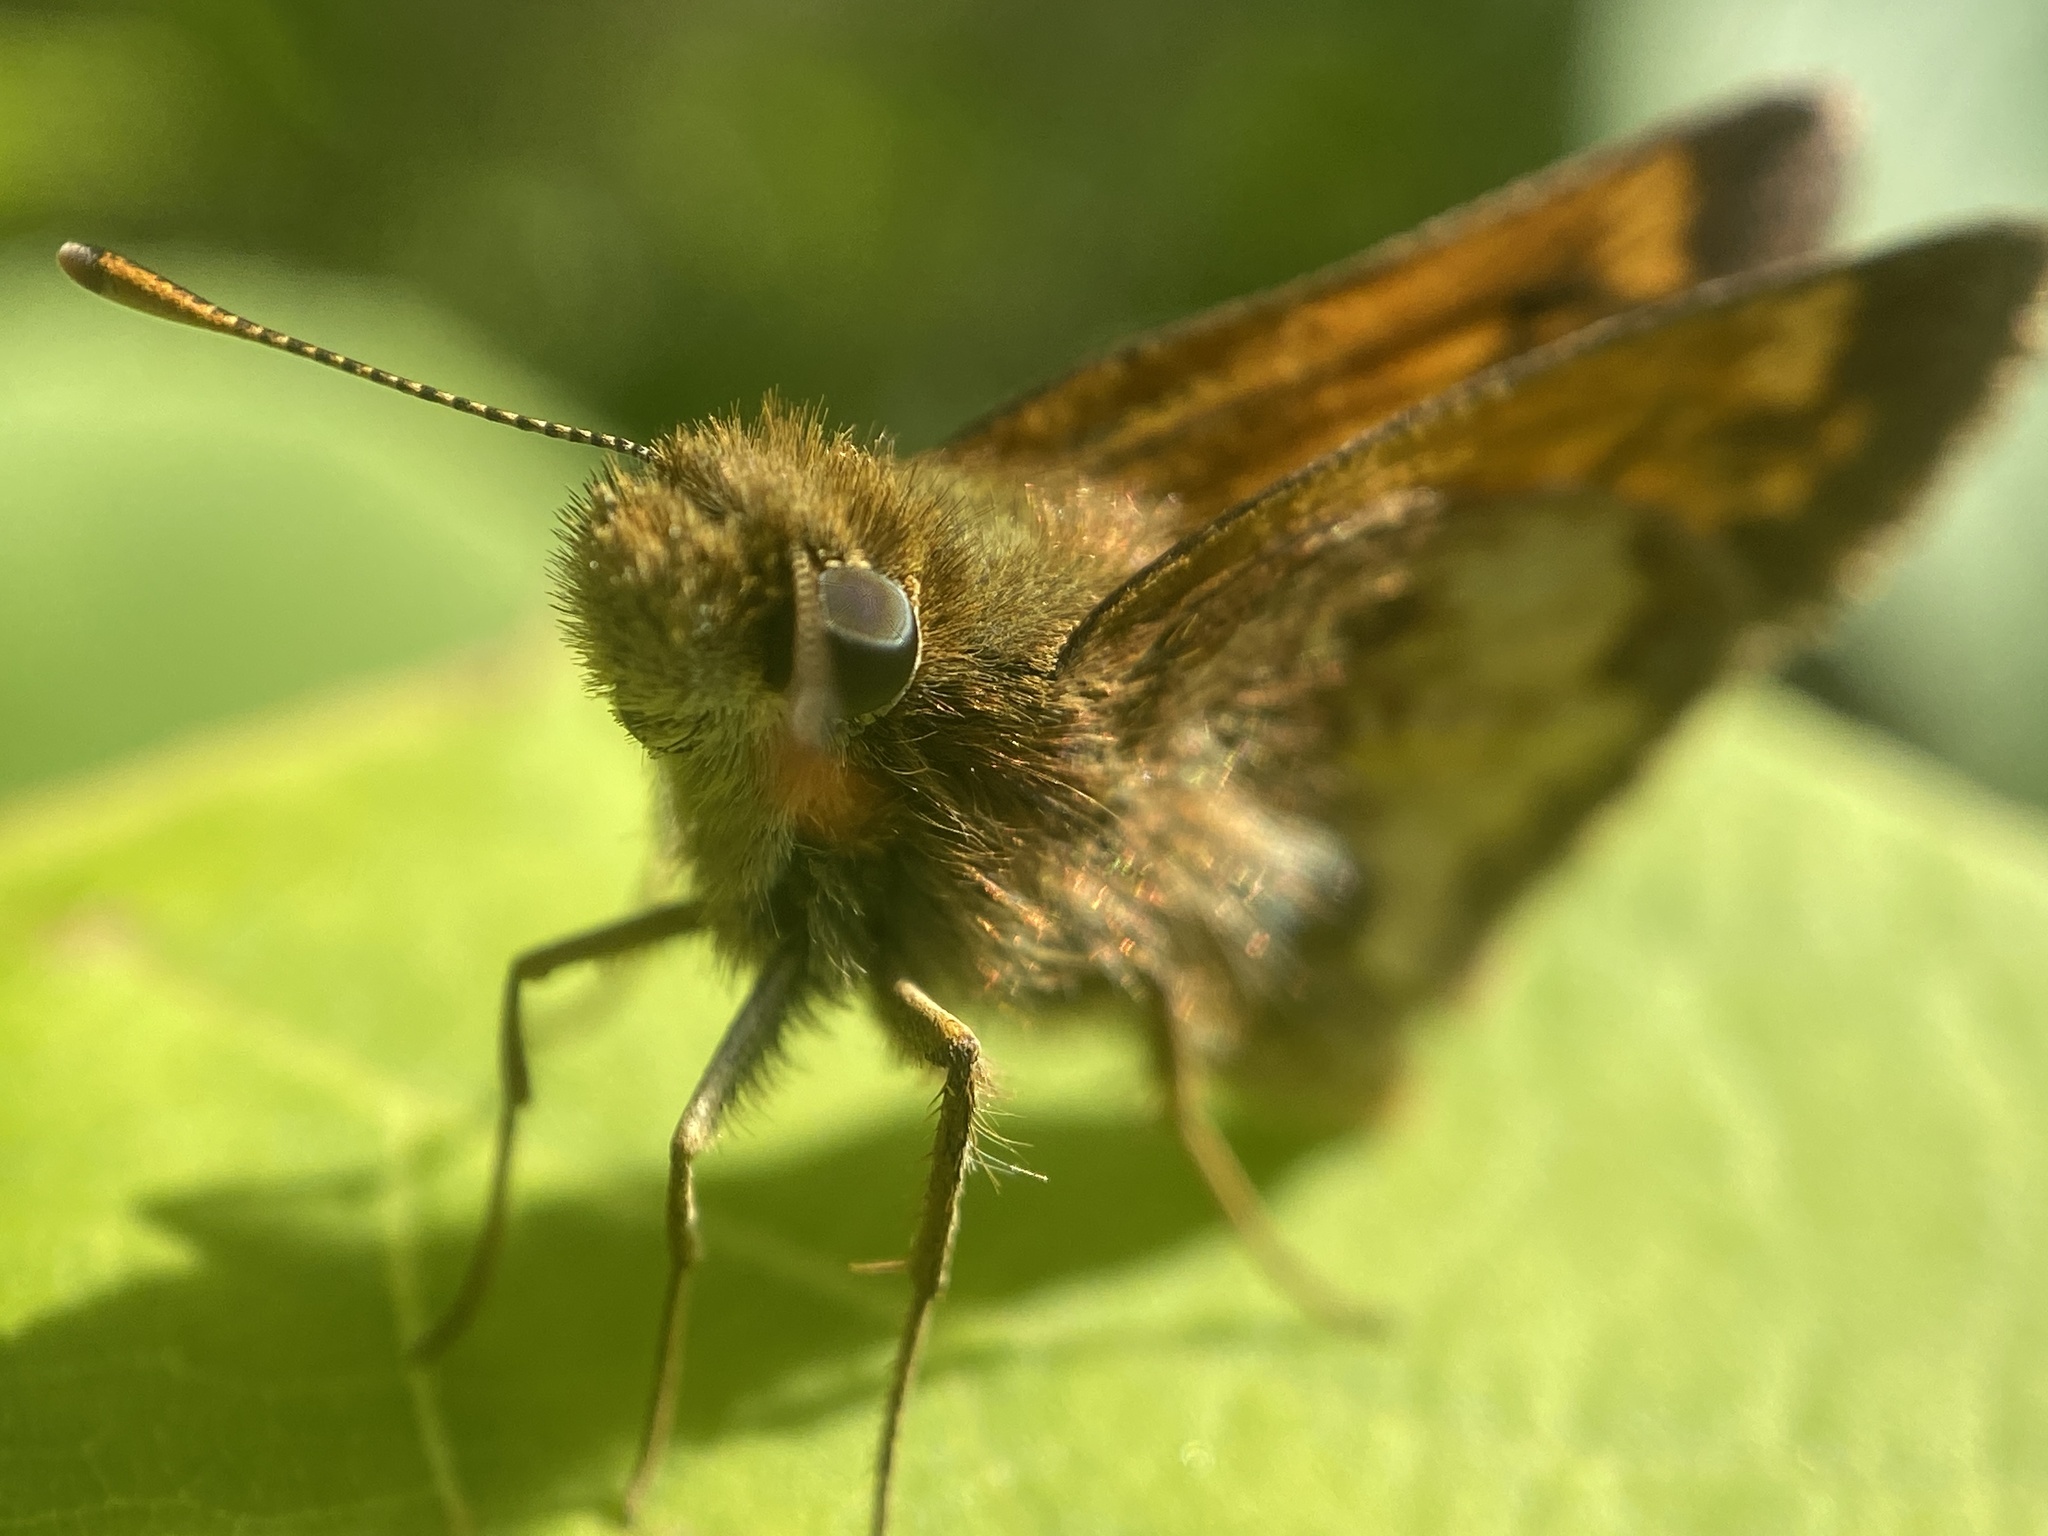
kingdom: Animalia
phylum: Arthropoda
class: Insecta
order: Lepidoptera
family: Hesperiidae
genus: Lon
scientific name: Lon hobomok
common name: Hobomok skipper
